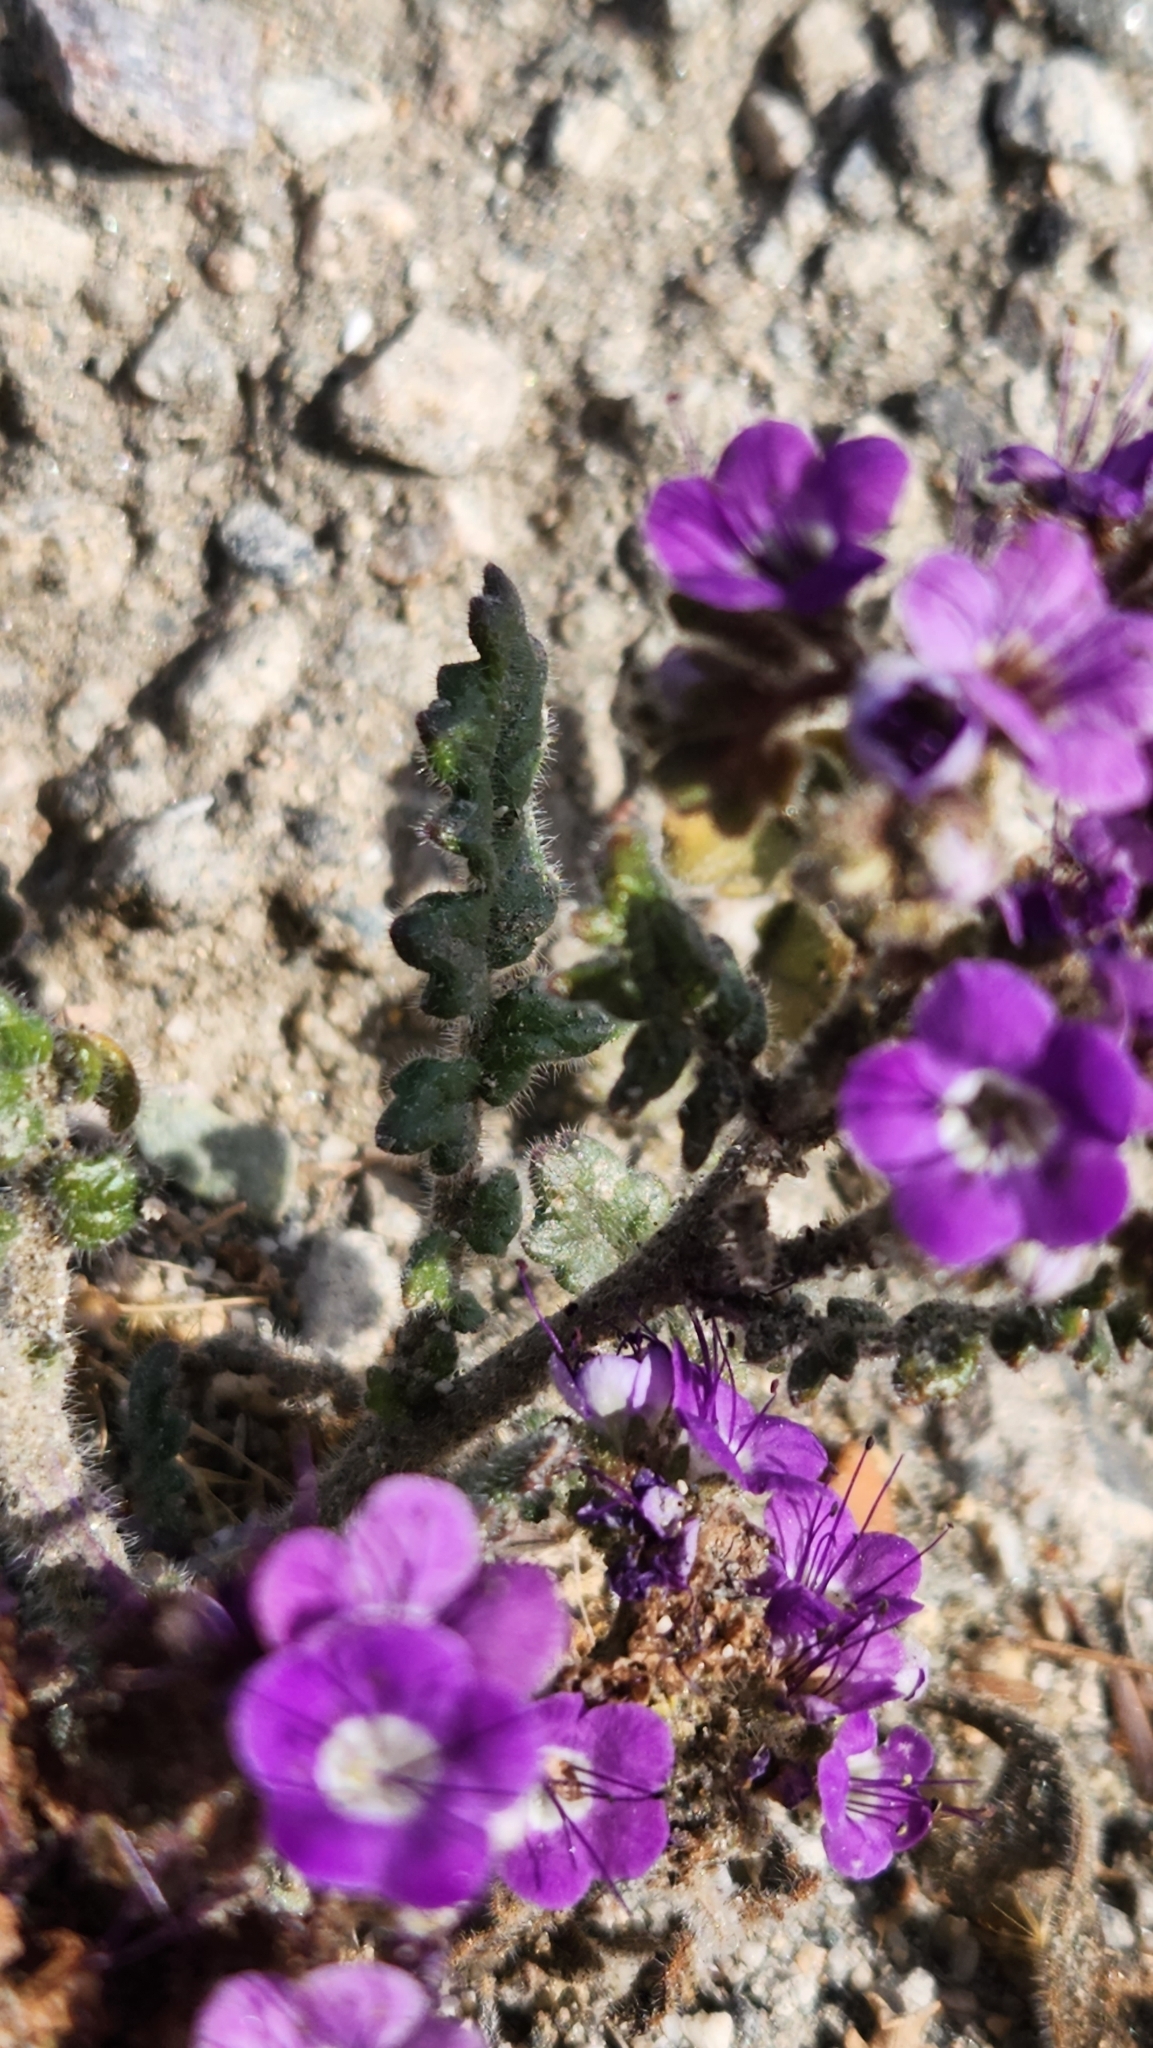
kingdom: Plantae
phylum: Tracheophyta
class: Magnoliopsida
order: Boraginales
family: Hydrophyllaceae
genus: Phacelia
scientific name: Phacelia crenulata
